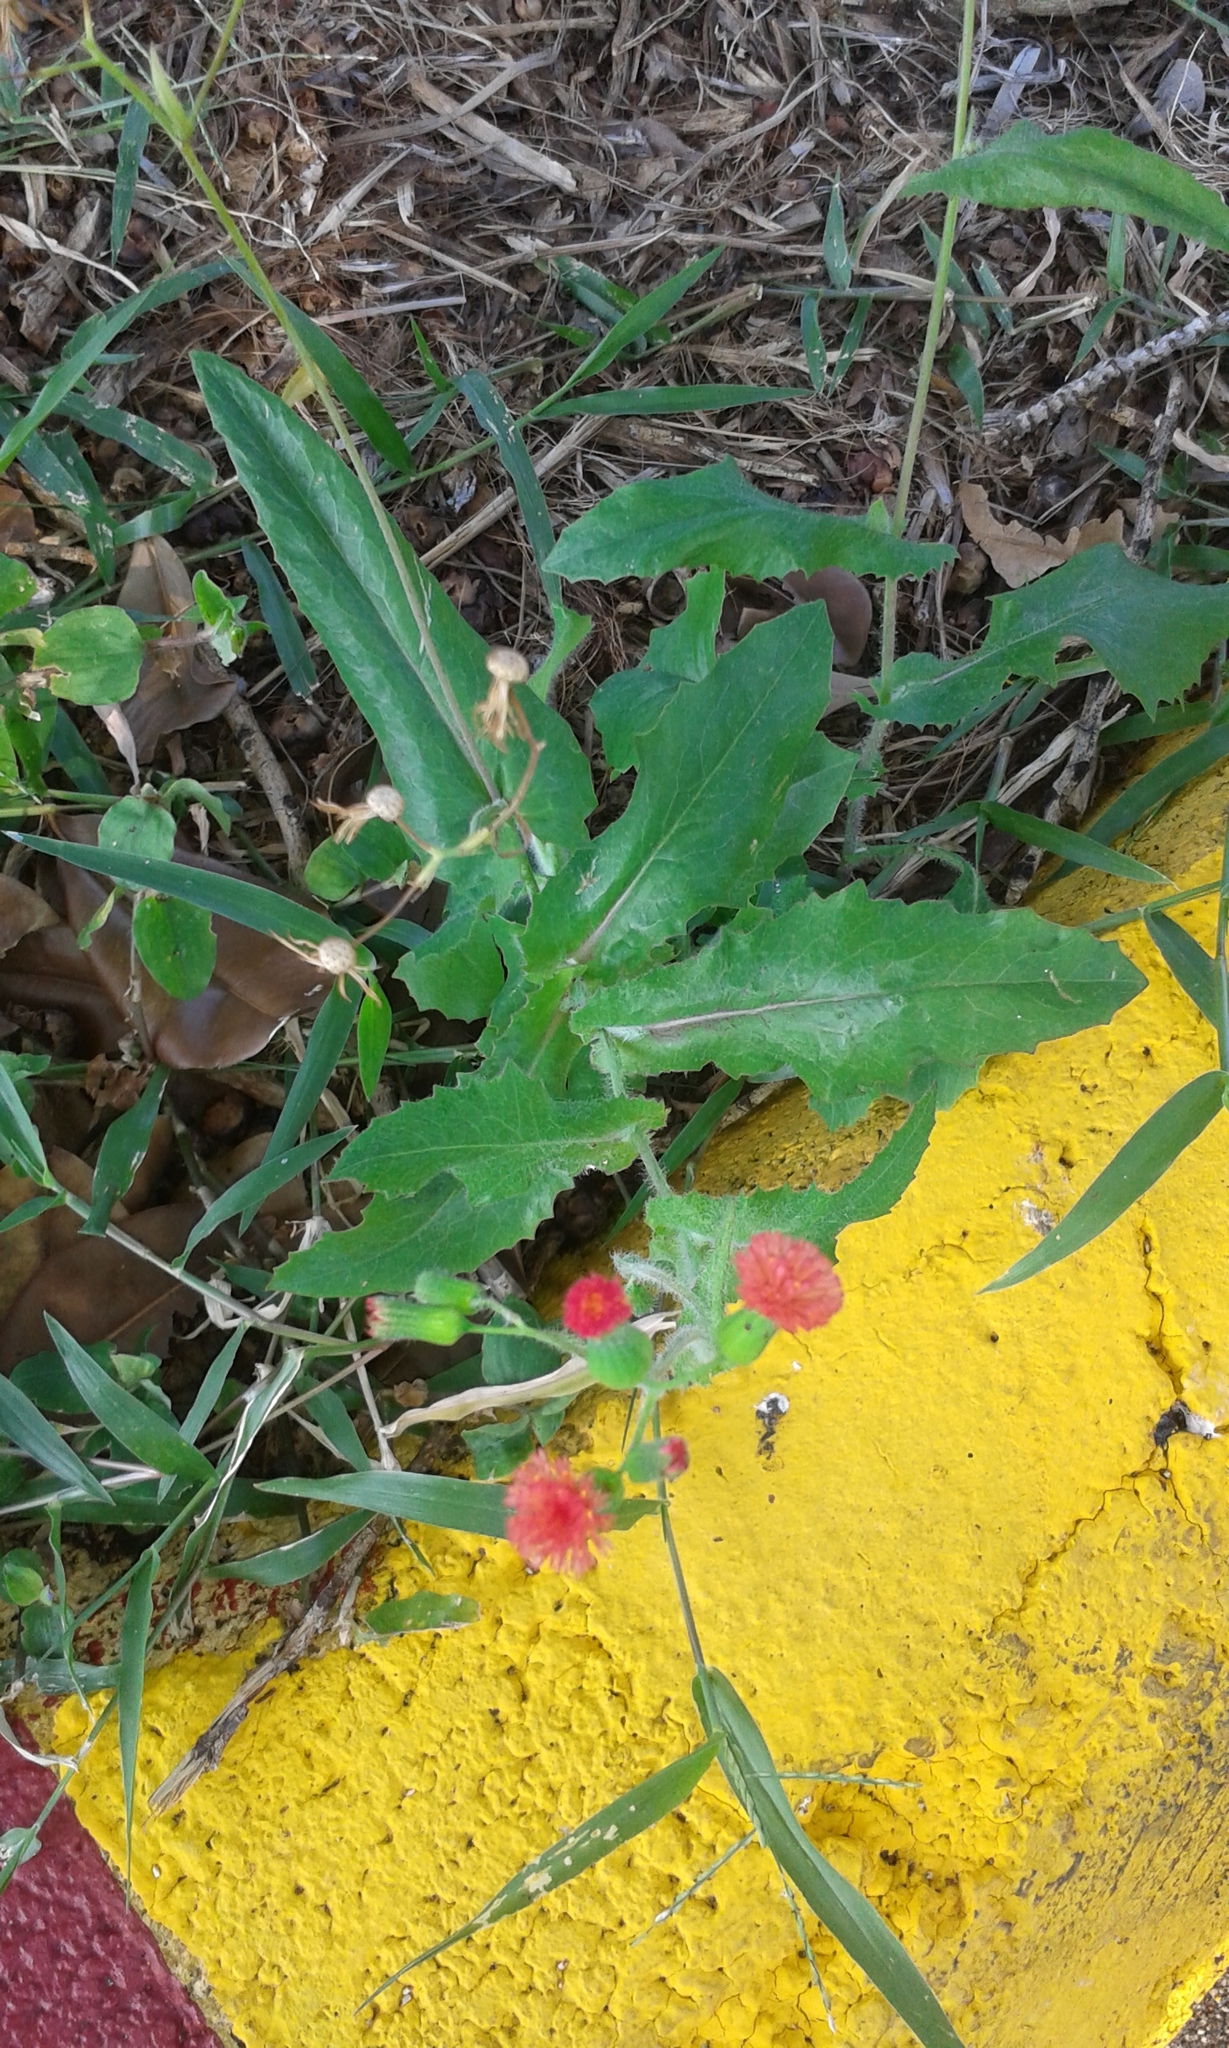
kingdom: Plantae
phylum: Tracheophyta
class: Magnoliopsida
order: Asterales
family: Asteraceae
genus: Emilia
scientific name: Emilia fosbergii
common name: Florida tasselflower
